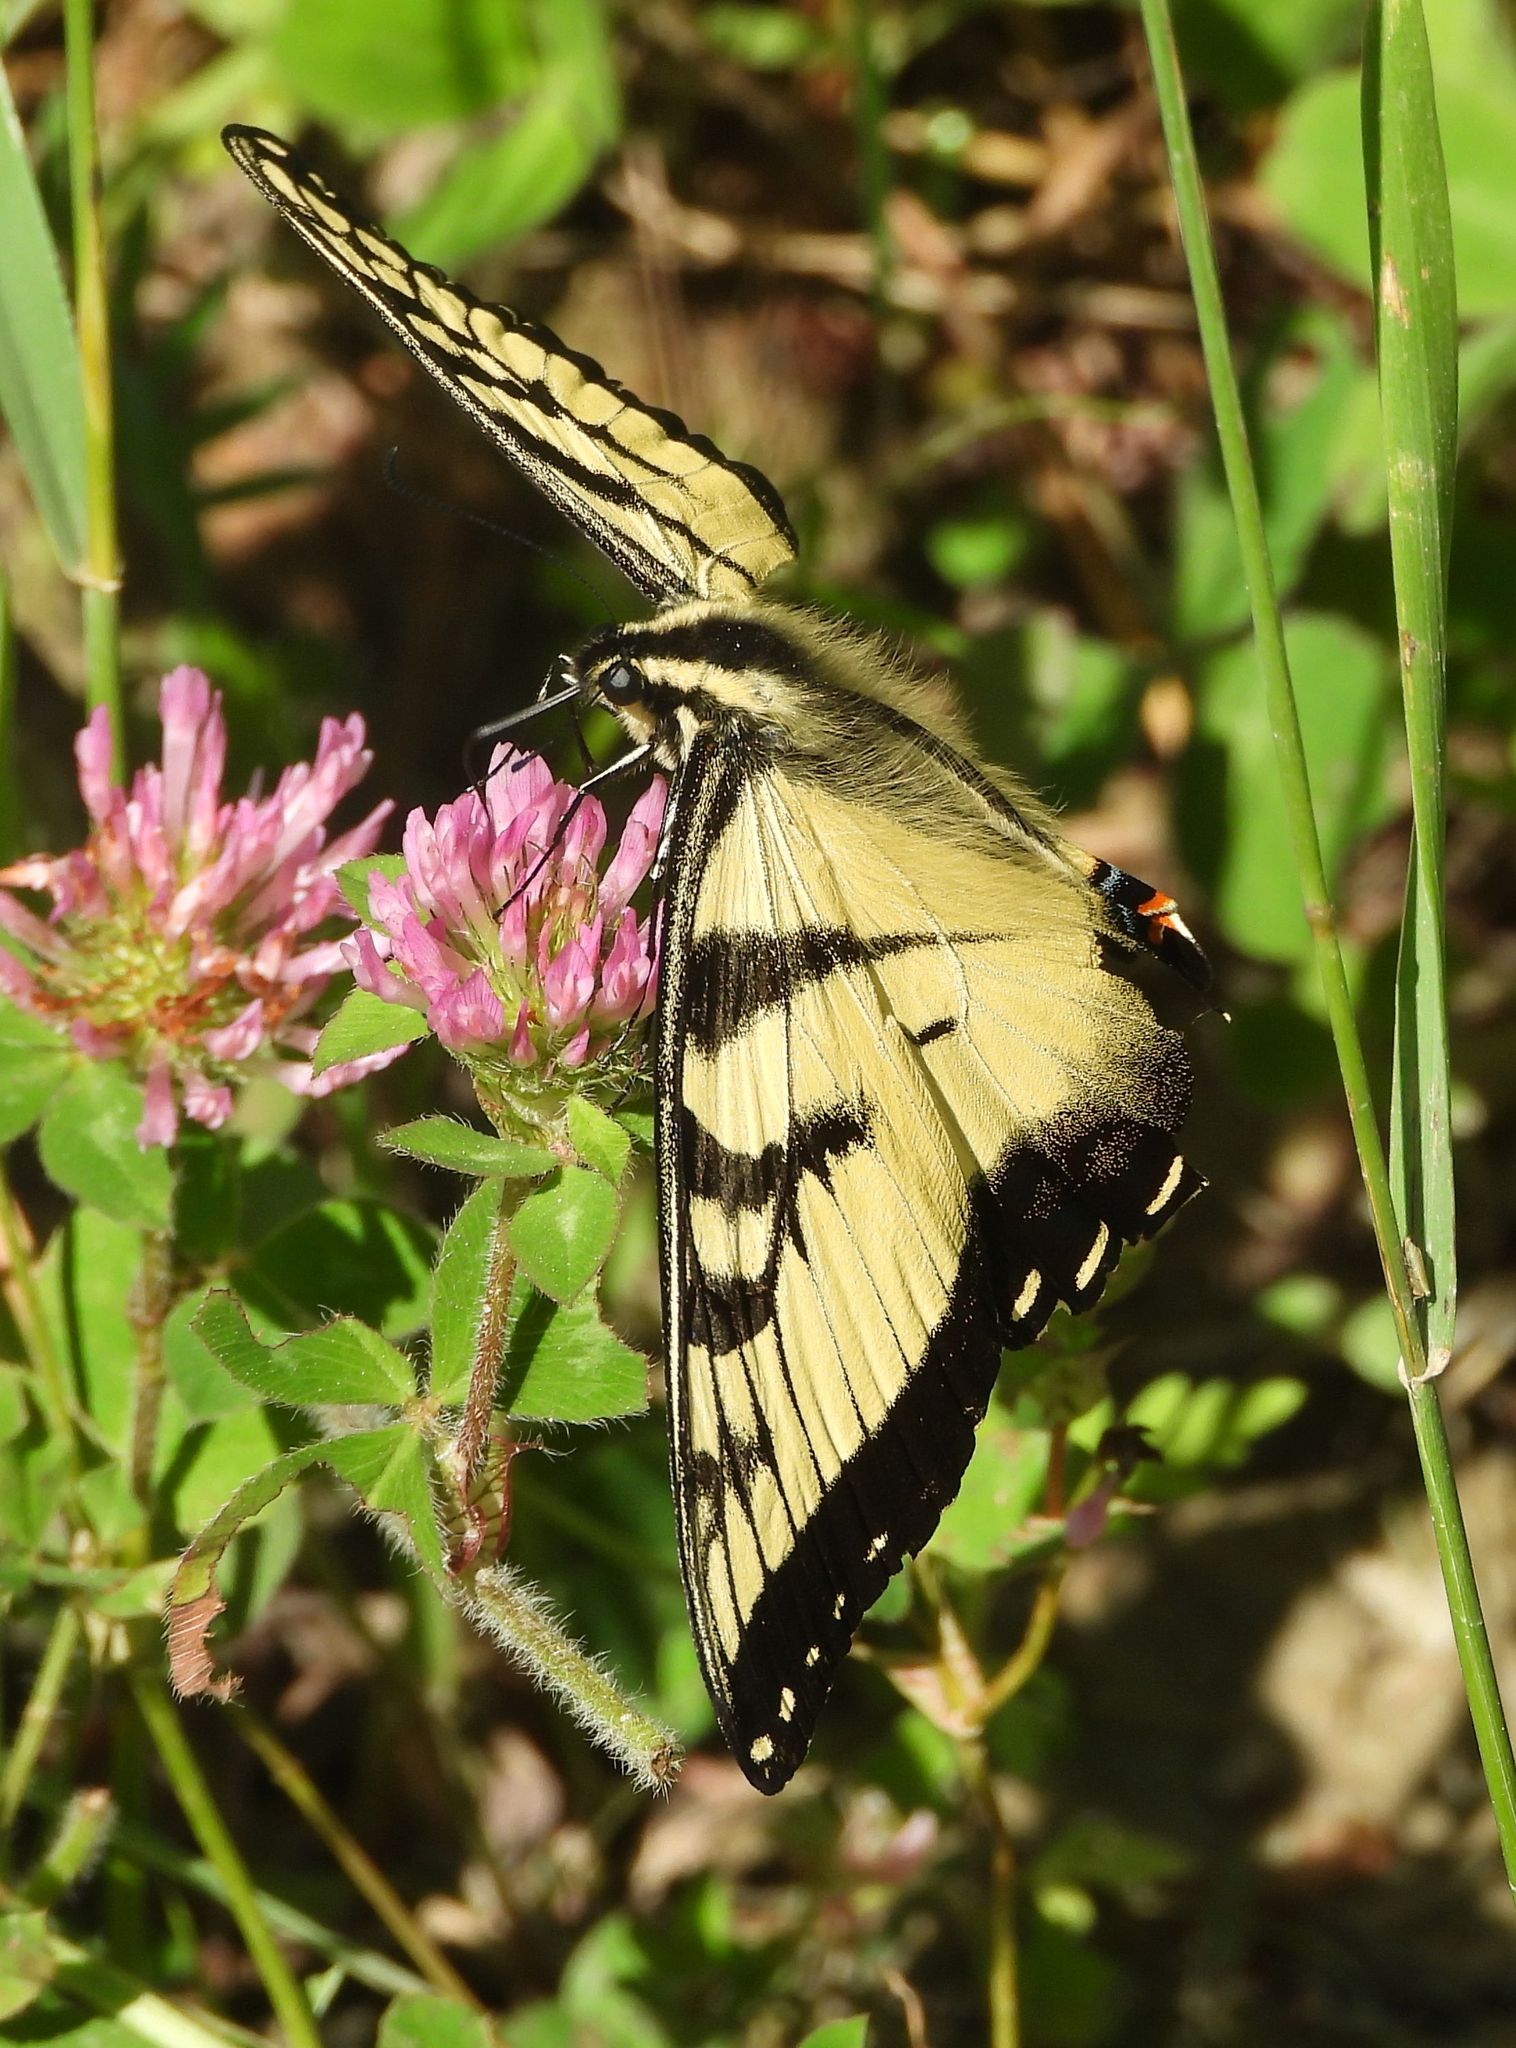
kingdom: Animalia
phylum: Arthropoda
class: Insecta
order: Lepidoptera
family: Papilionidae
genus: Papilio
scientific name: Papilio
